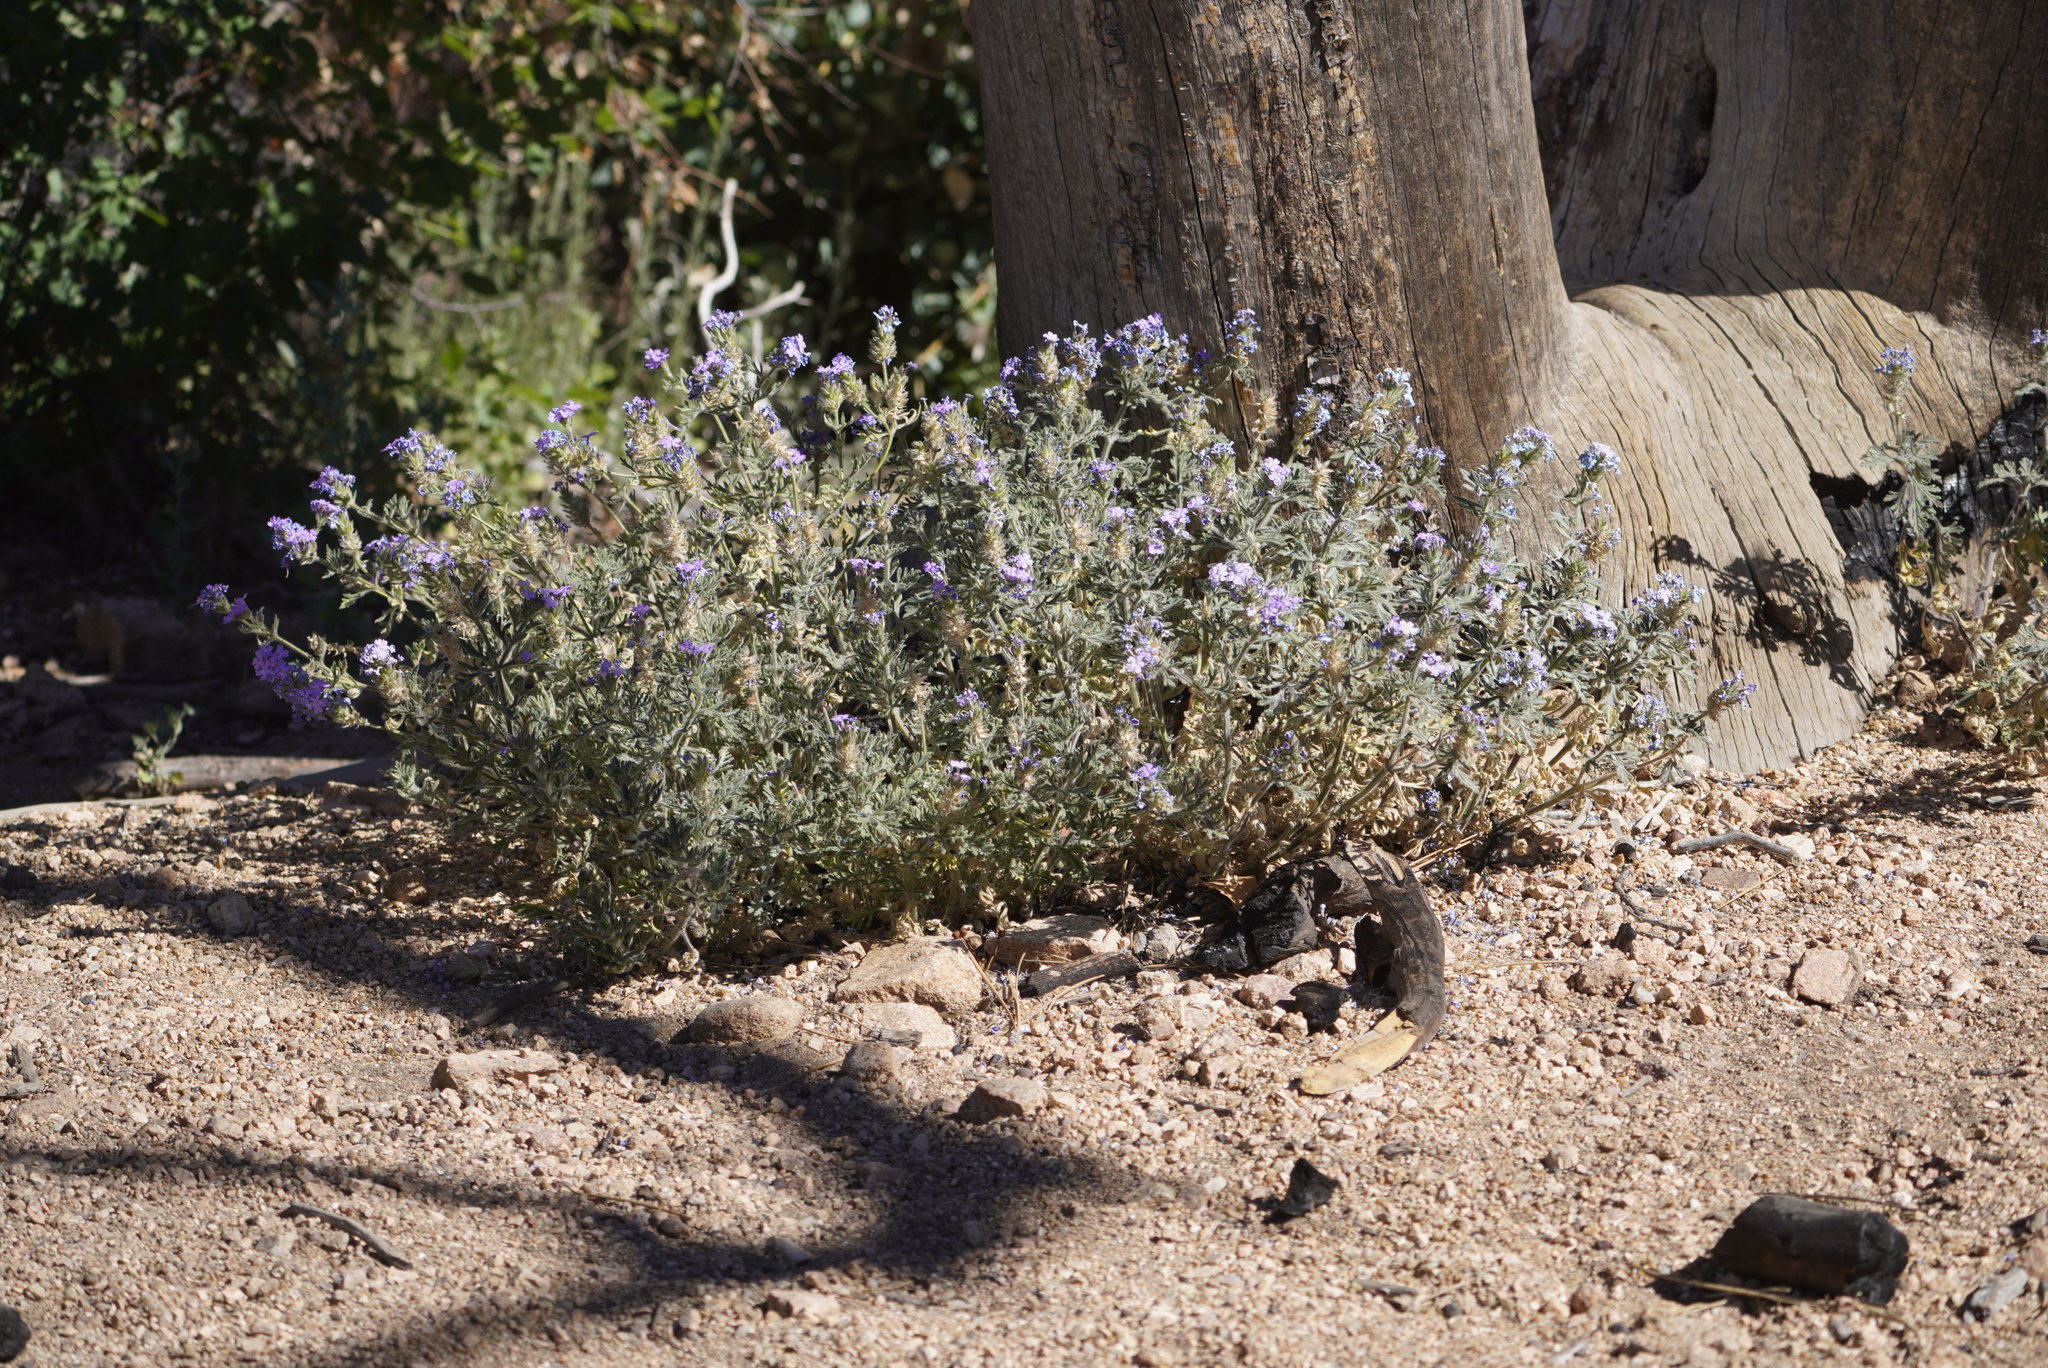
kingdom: Plantae
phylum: Tracheophyta
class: Magnoliopsida
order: Lamiales
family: Verbenaceae
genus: Verbena
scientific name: Verbena
